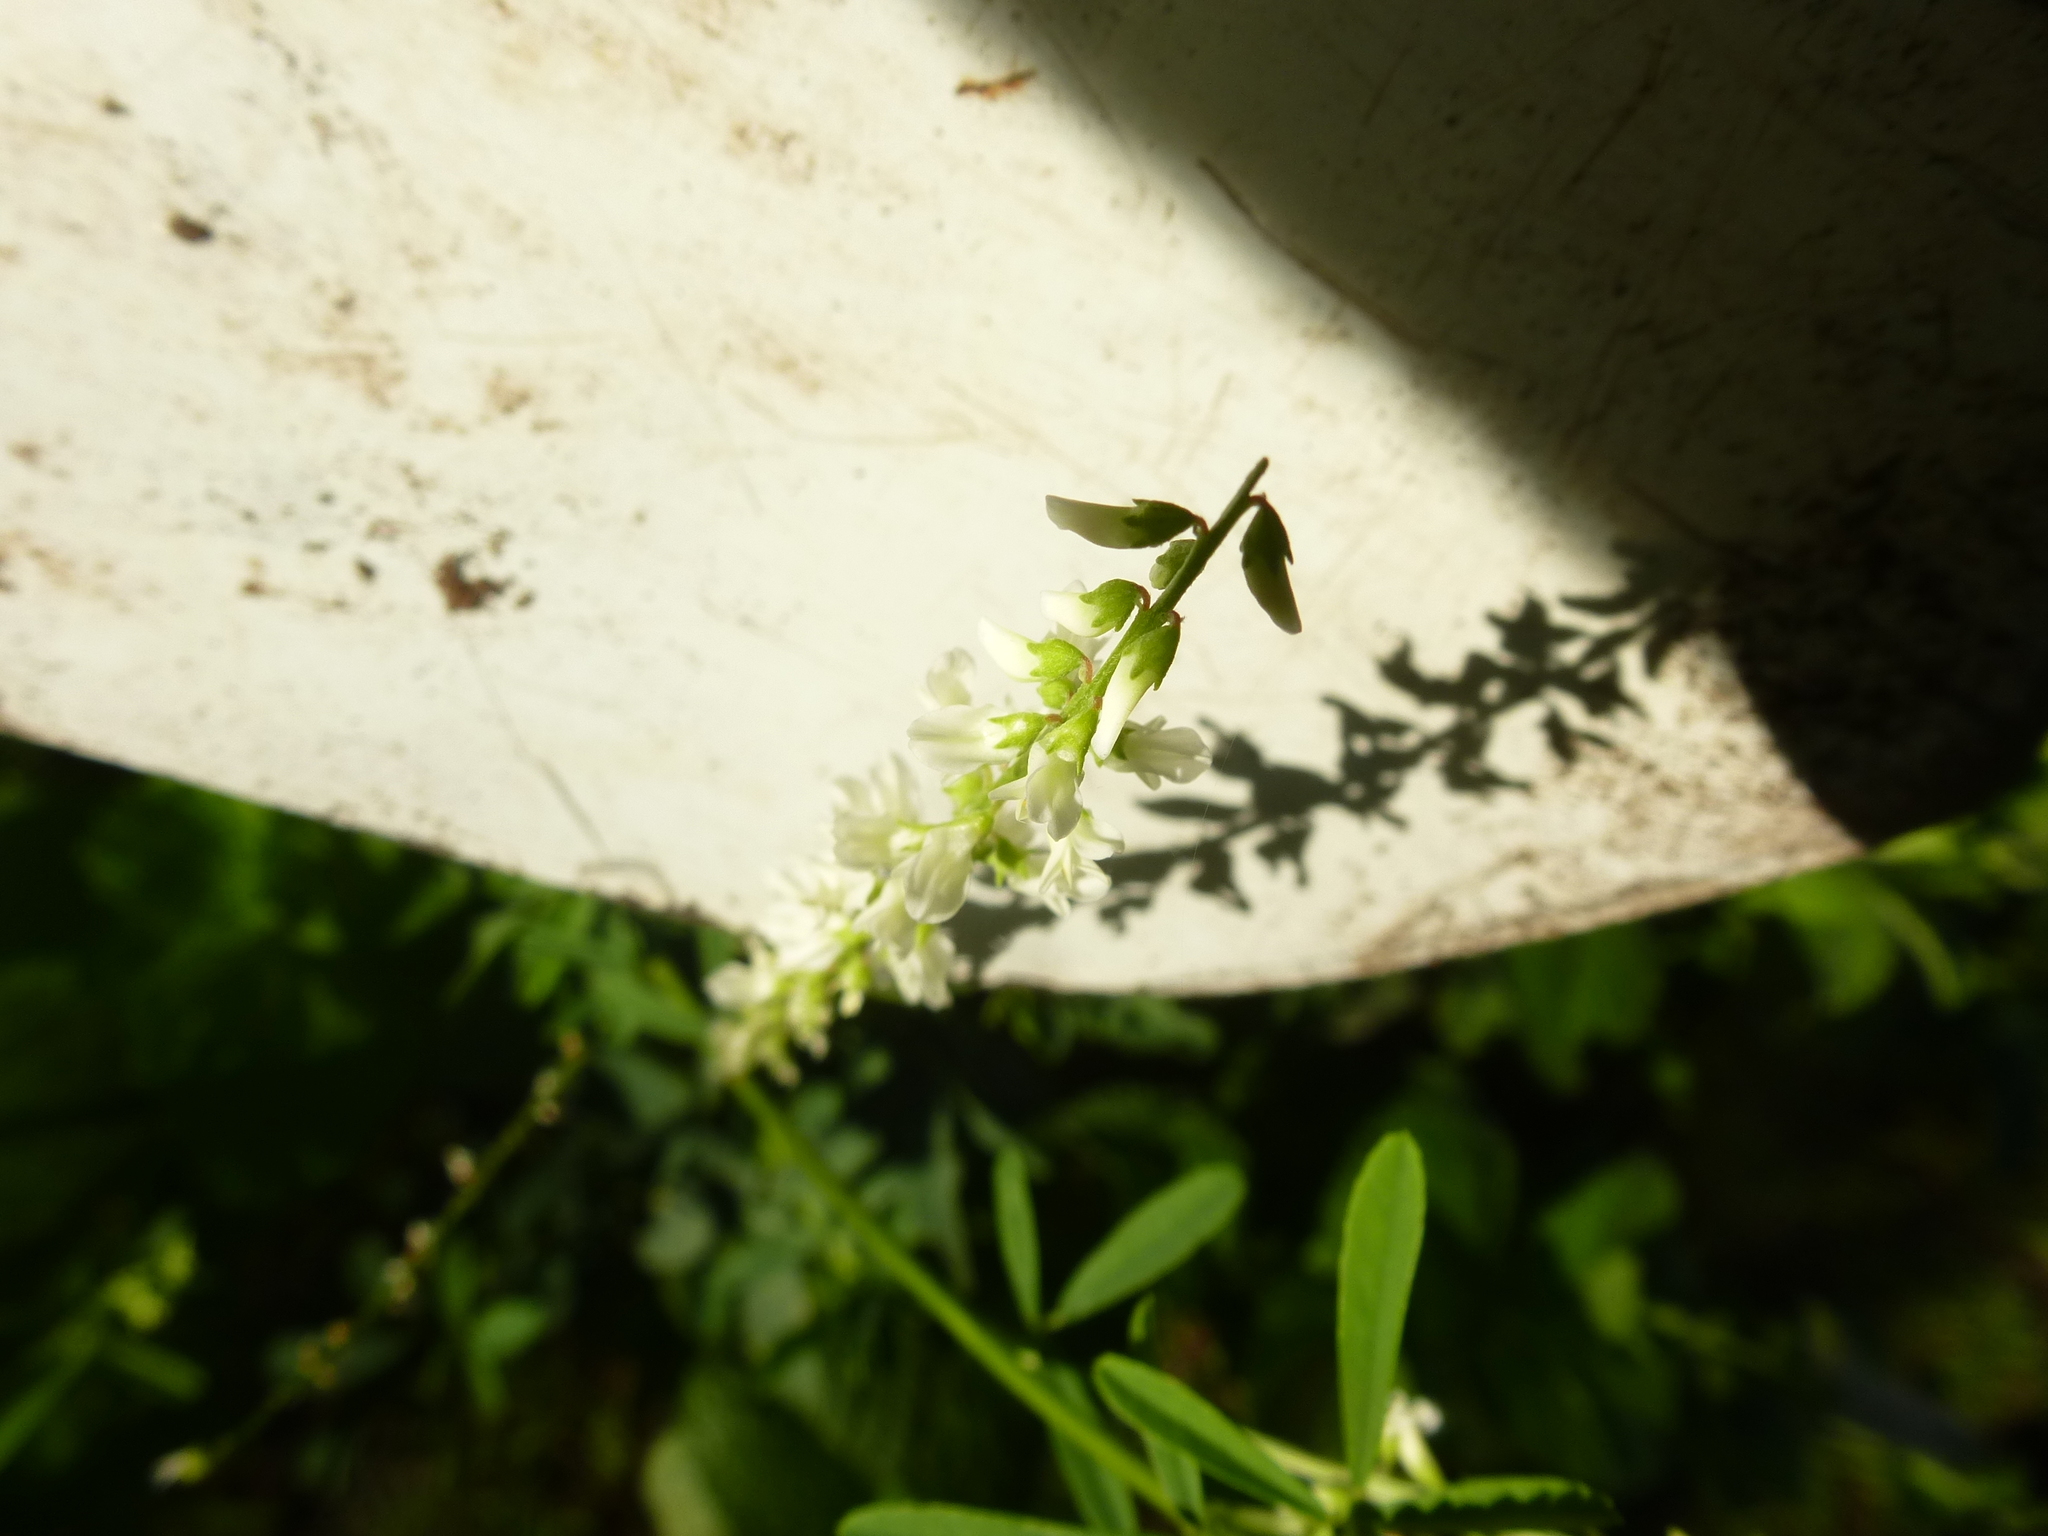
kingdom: Plantae
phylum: Tracheophyta
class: Magnoliopsida
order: Fabales
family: Fabaceae
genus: Melilotus
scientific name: Melilotus albus
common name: White melilot
